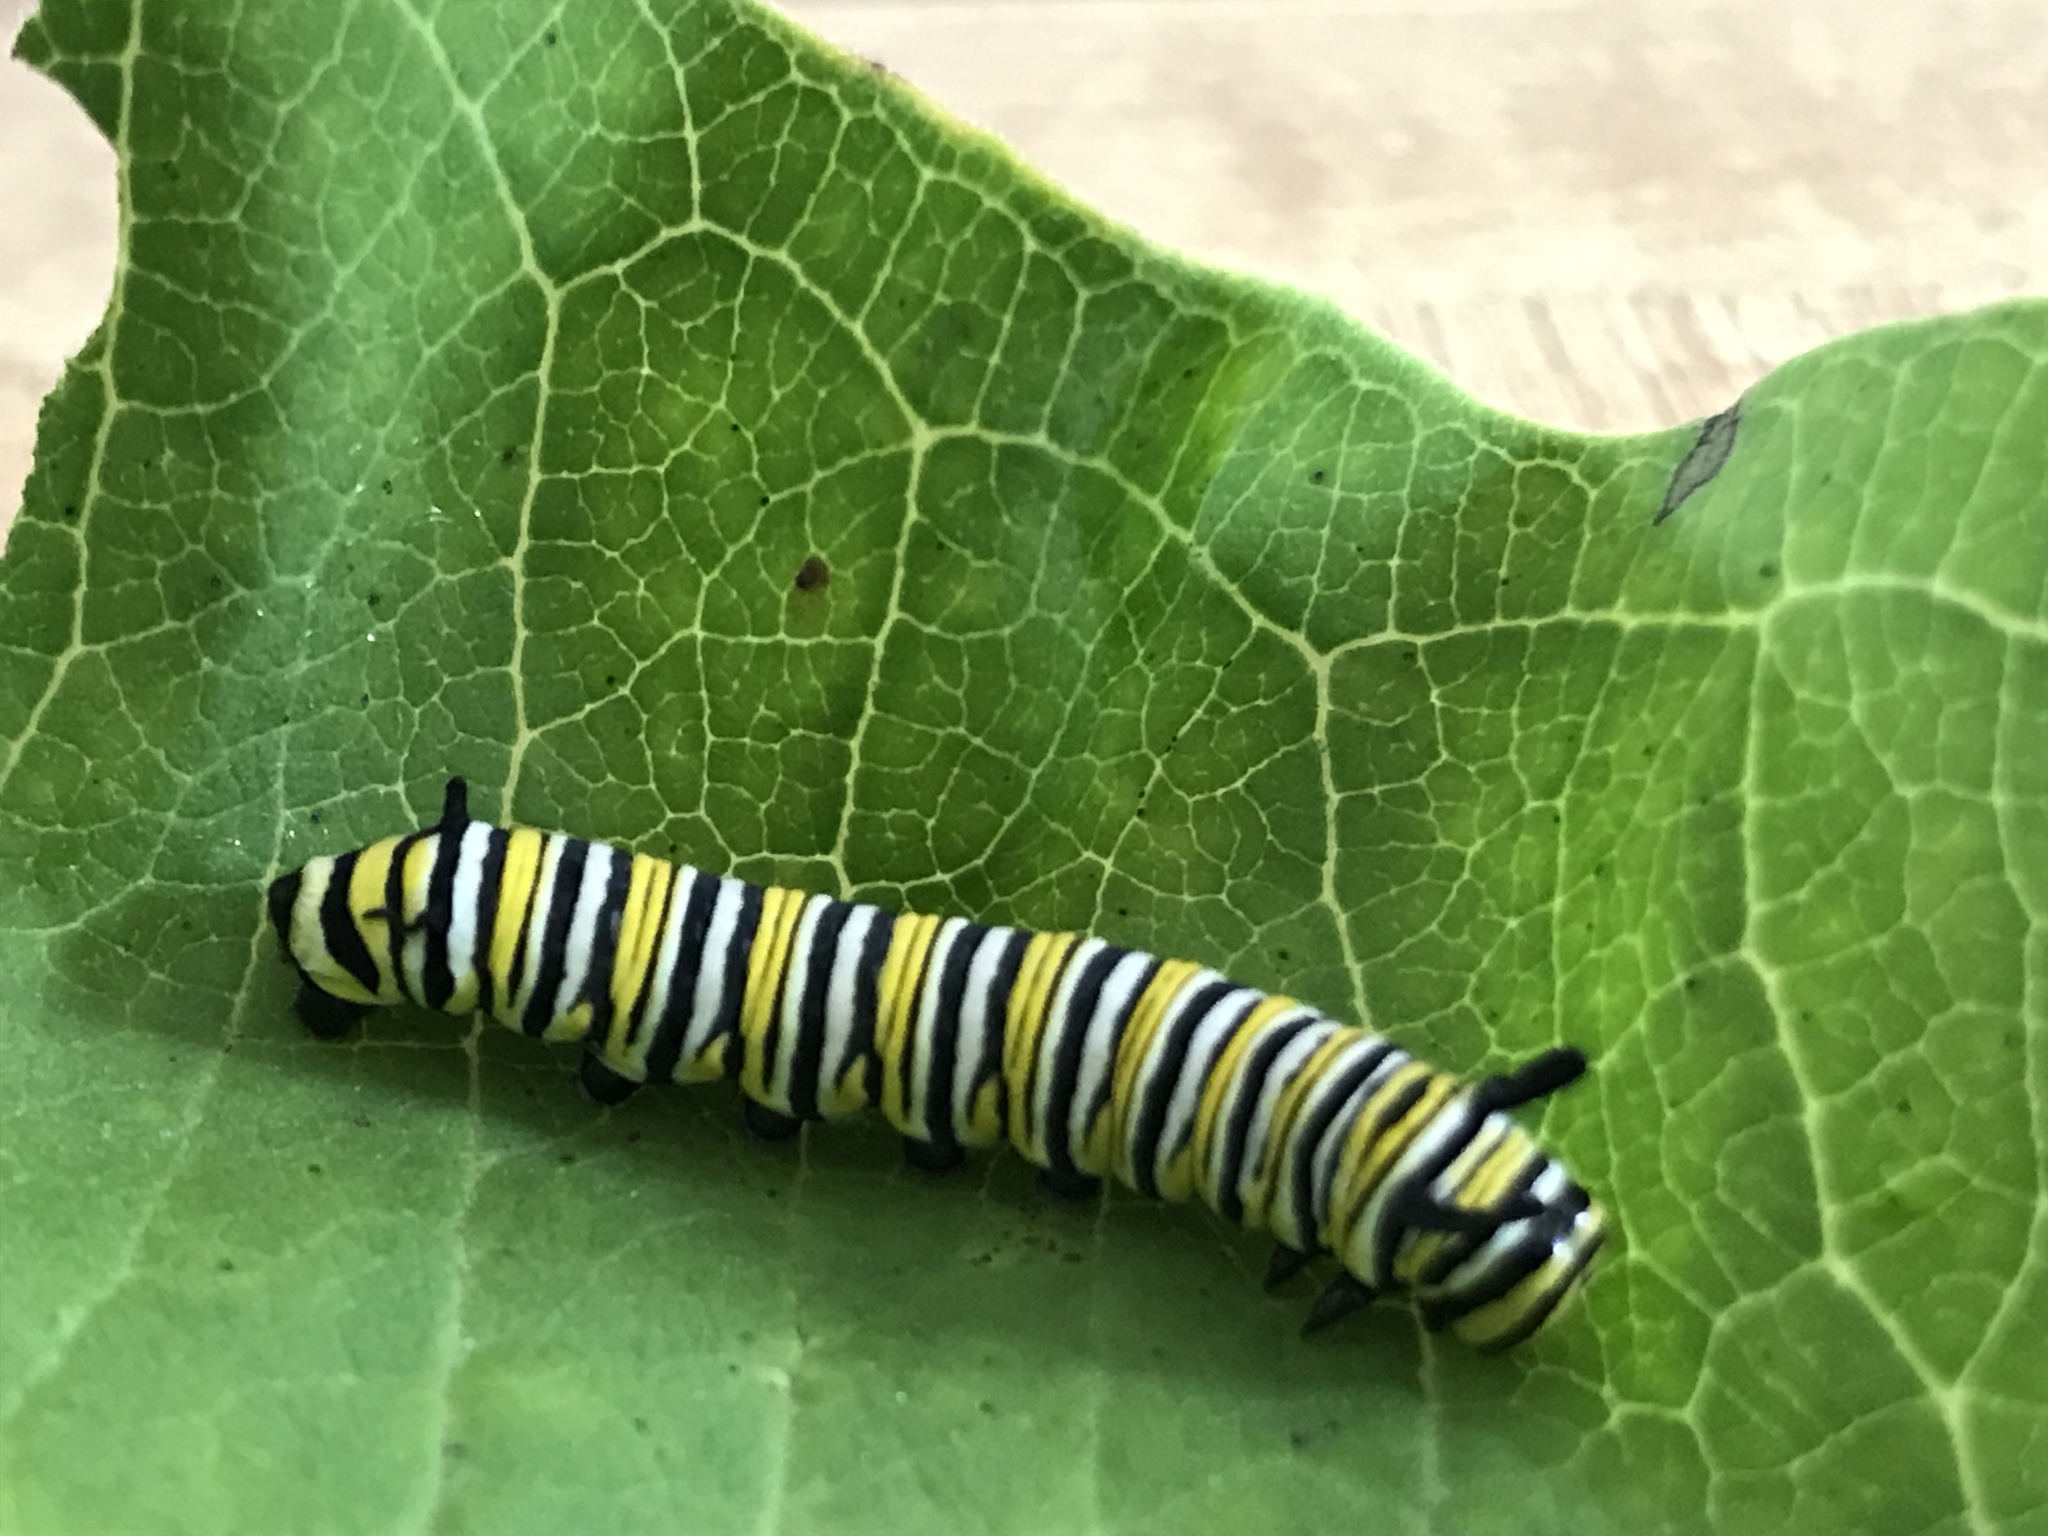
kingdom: Animalia
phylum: Arthropoda
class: Insecta
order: Lepidoptera
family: Nymphalidae
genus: Danaus
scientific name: Danaus plexippus
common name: Monarch
